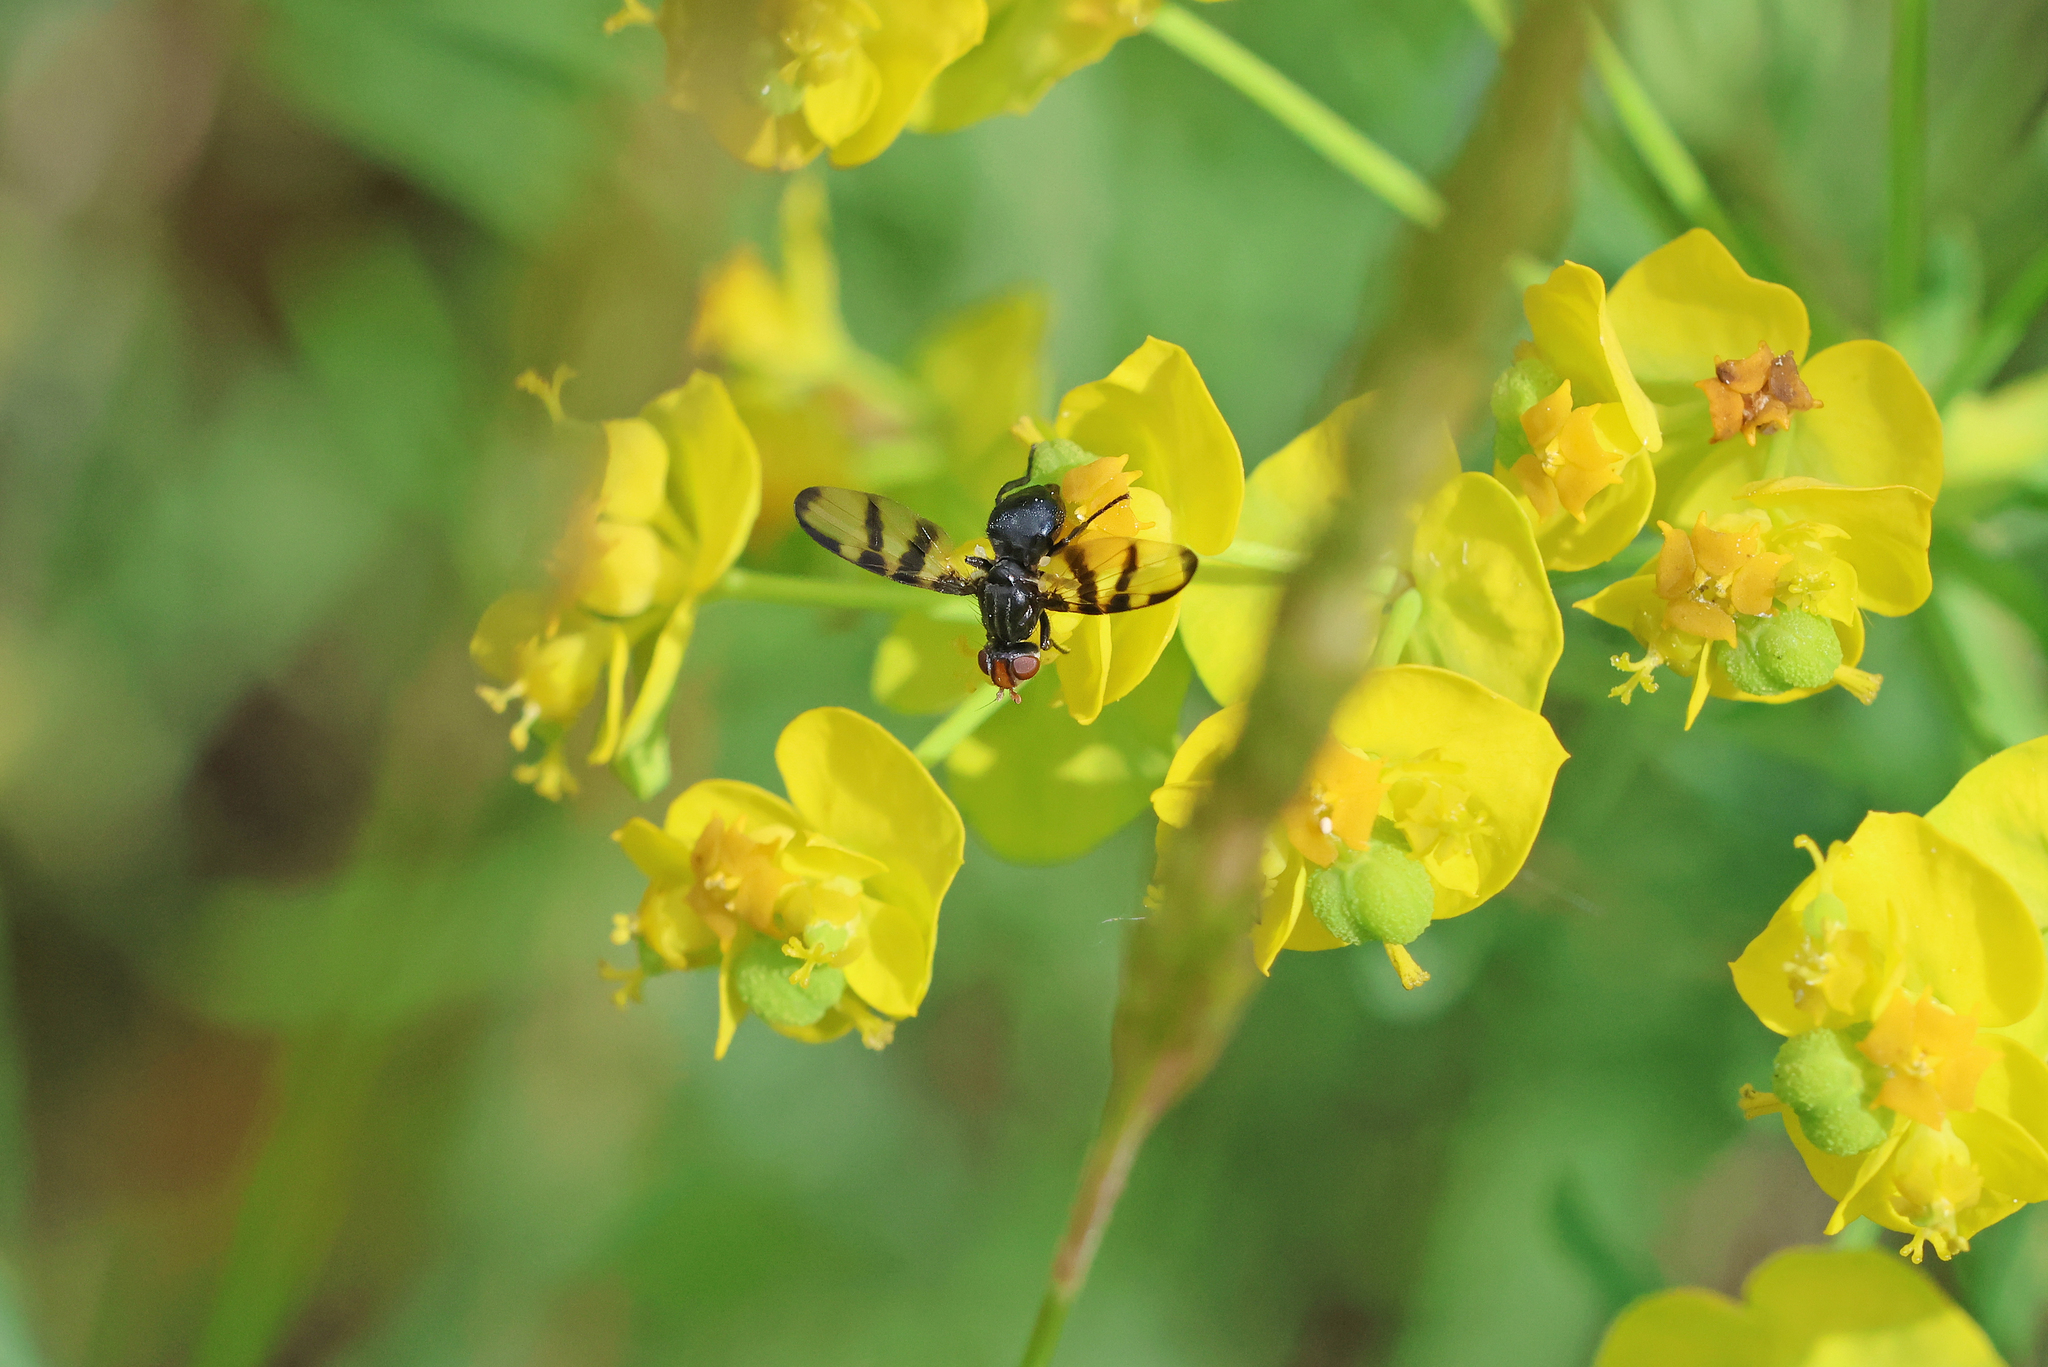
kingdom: Animalia
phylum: Arthropoda
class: Insecta
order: Diptera
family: Ulidiidae
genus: Systata
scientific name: Systata rivularis
